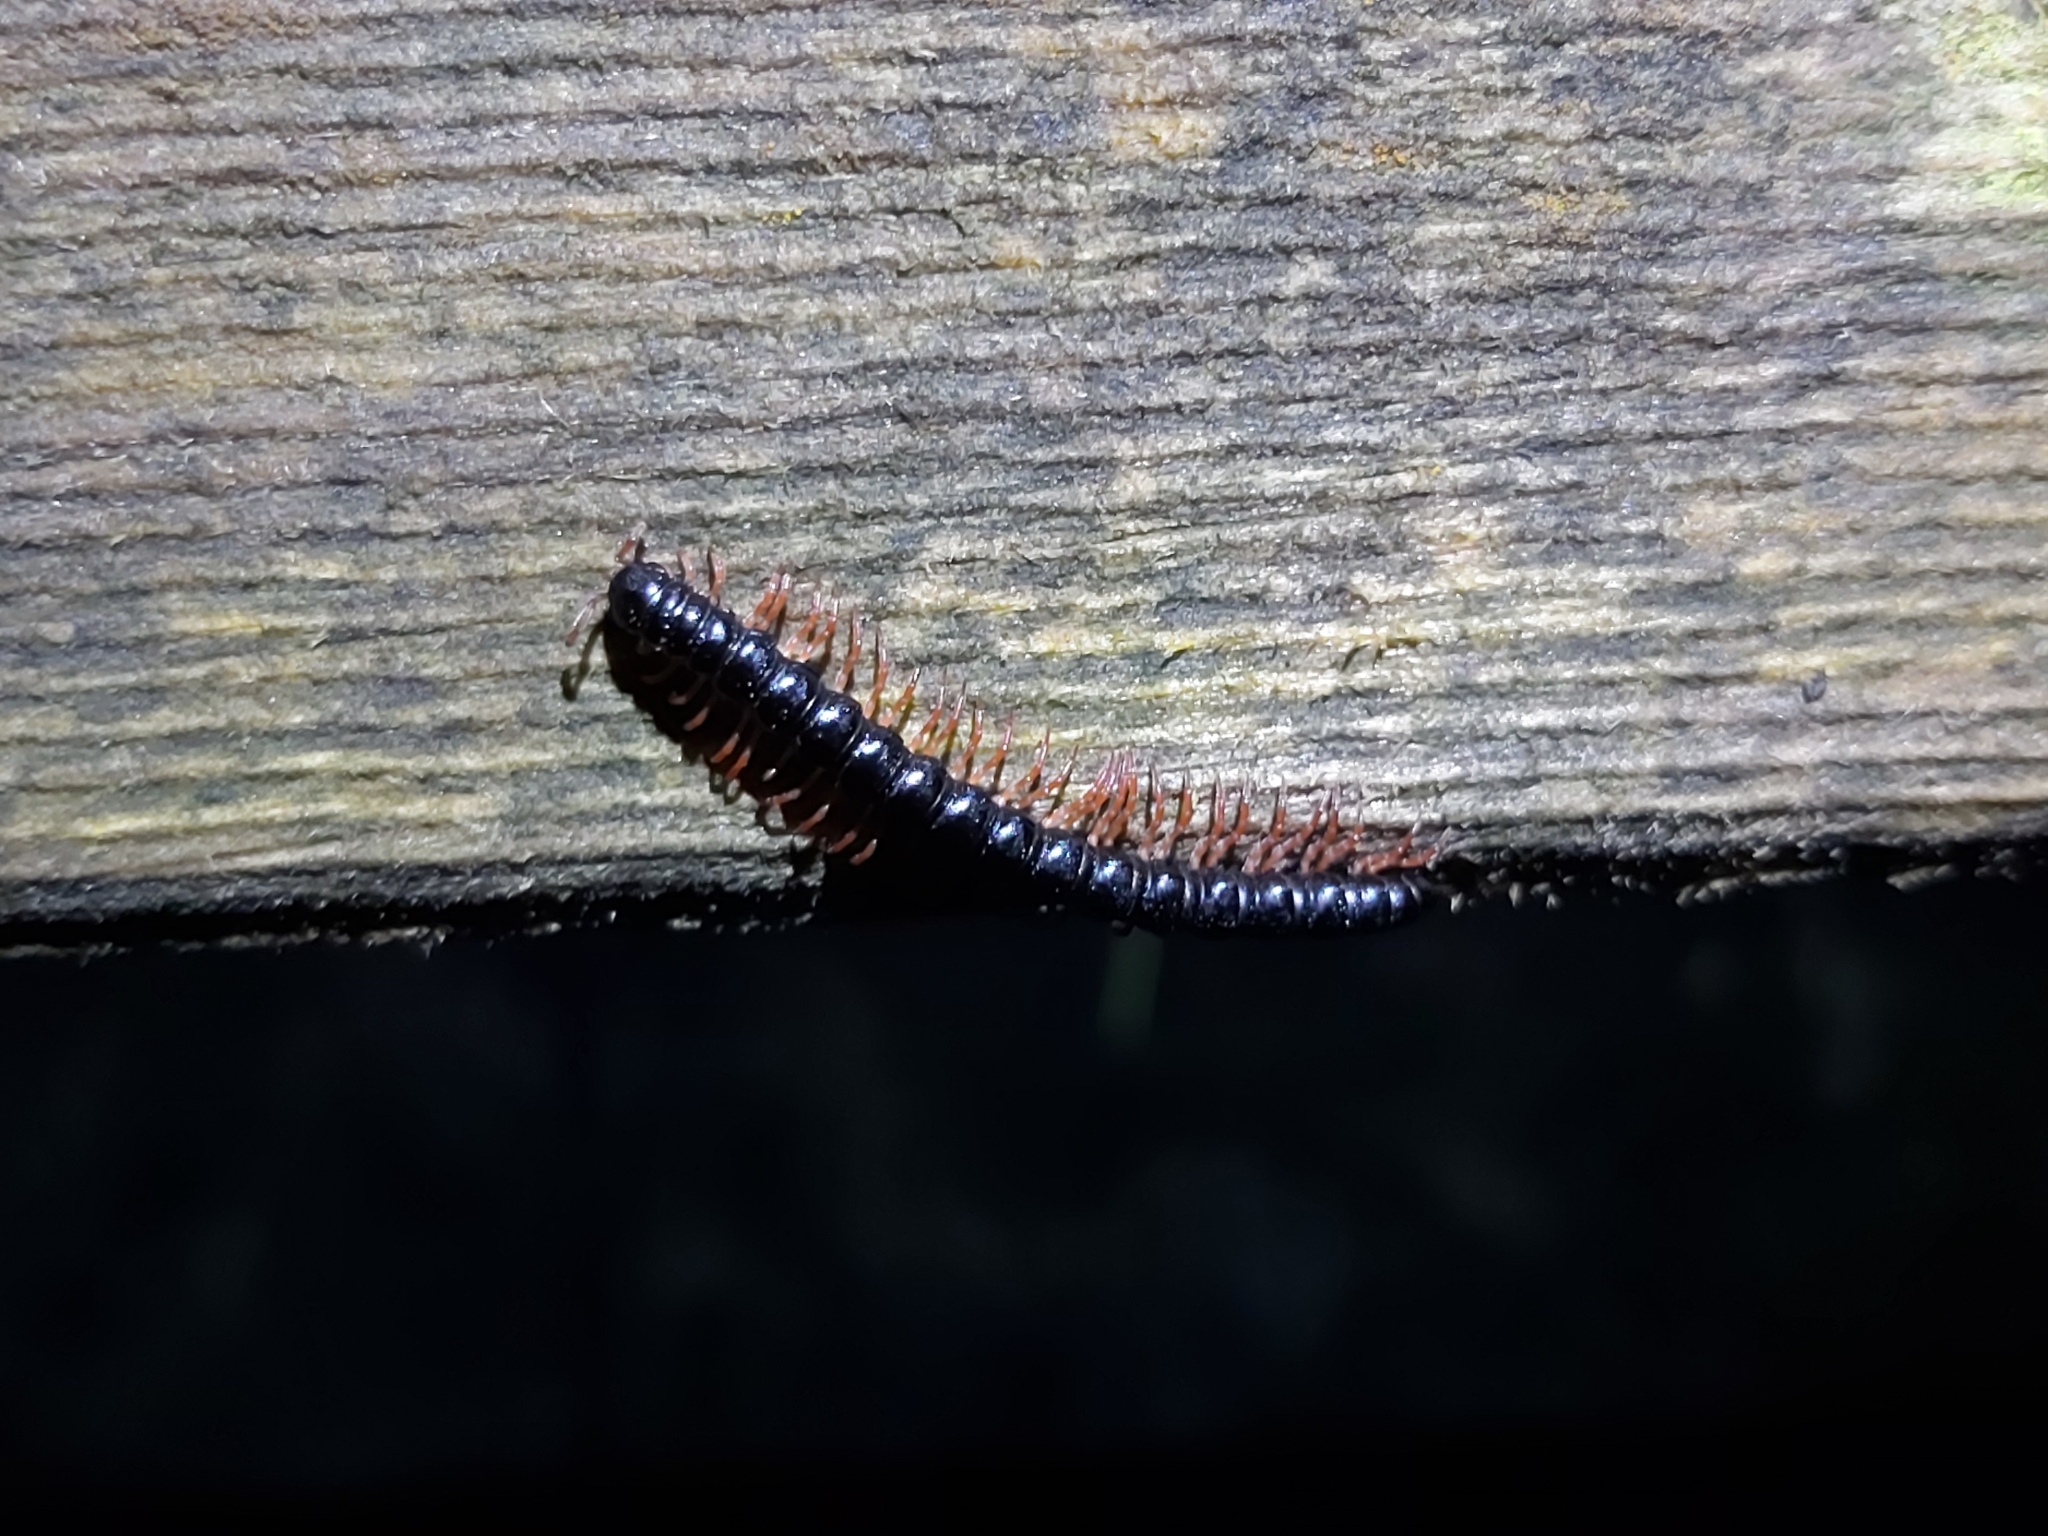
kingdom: Animalia
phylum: Arthropoda
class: Diplopoda
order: Polydesmida
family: Paradoxosomatidae
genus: Heterocladosoma
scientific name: Heterocladosoma
